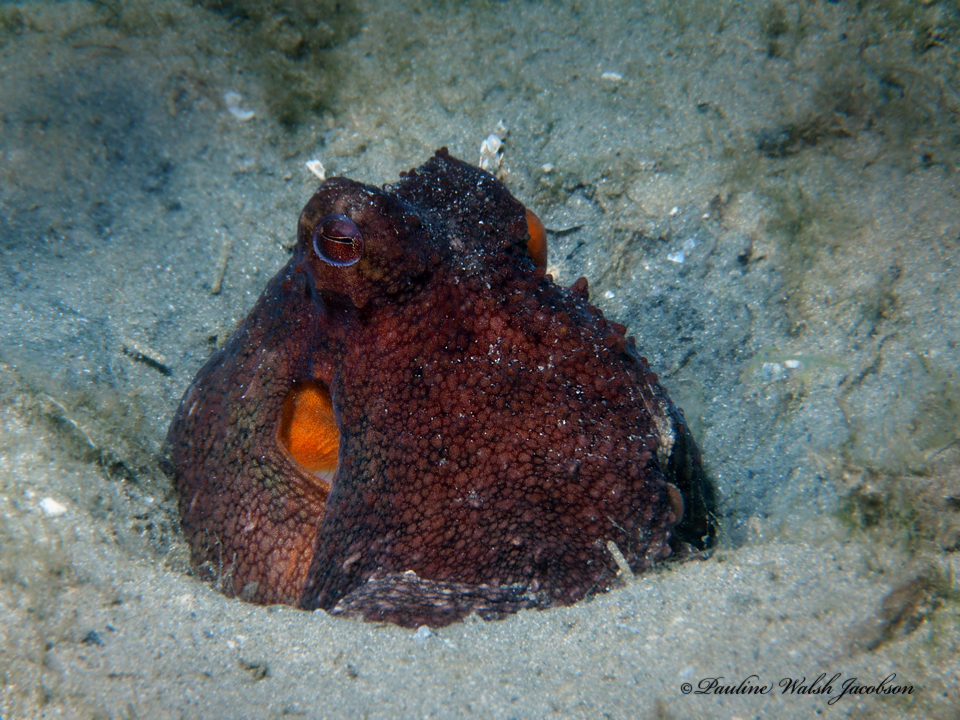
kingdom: Animalia
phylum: Mollusca
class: Cephalopoda
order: Octopoda
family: Octopodidae
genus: Octopus
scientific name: Octopus americanus
